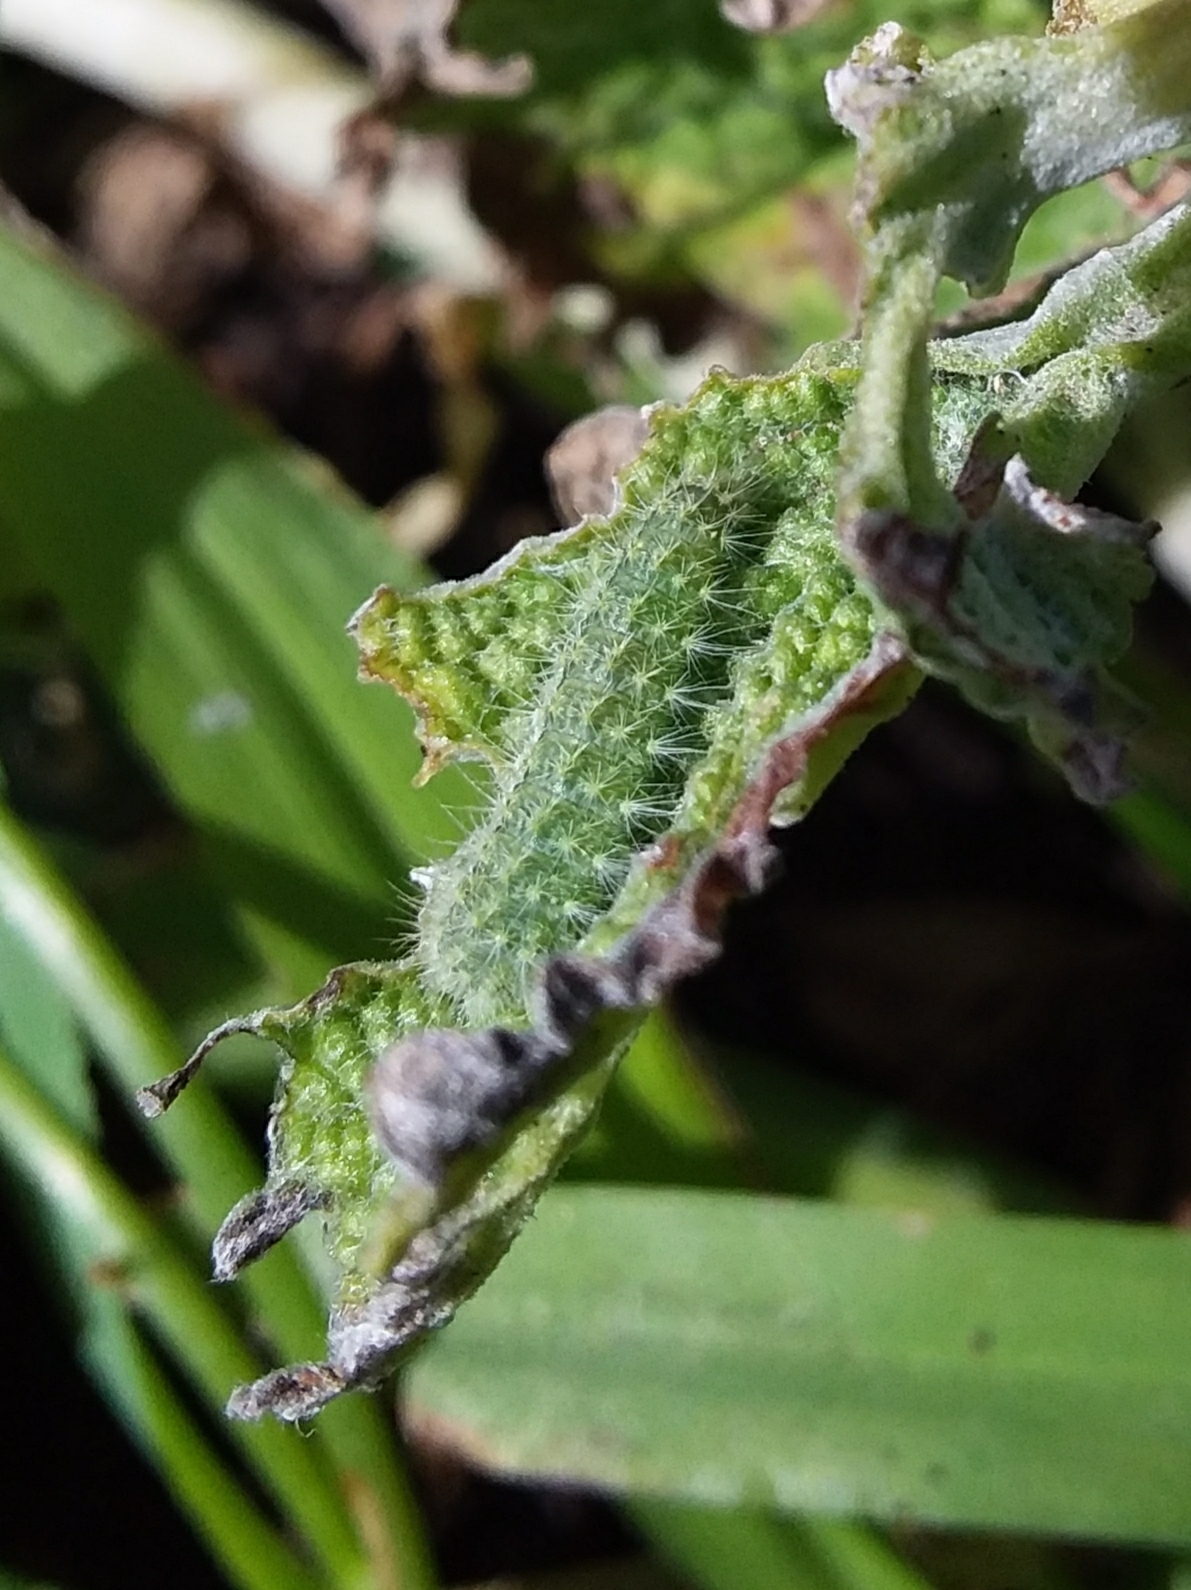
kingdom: Animalia
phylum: Arthropoda
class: Insecta
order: Lepidoptera
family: Pterophoridae
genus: Wheeleria
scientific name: Wheeleria spilodactylus
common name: Horehound plume
